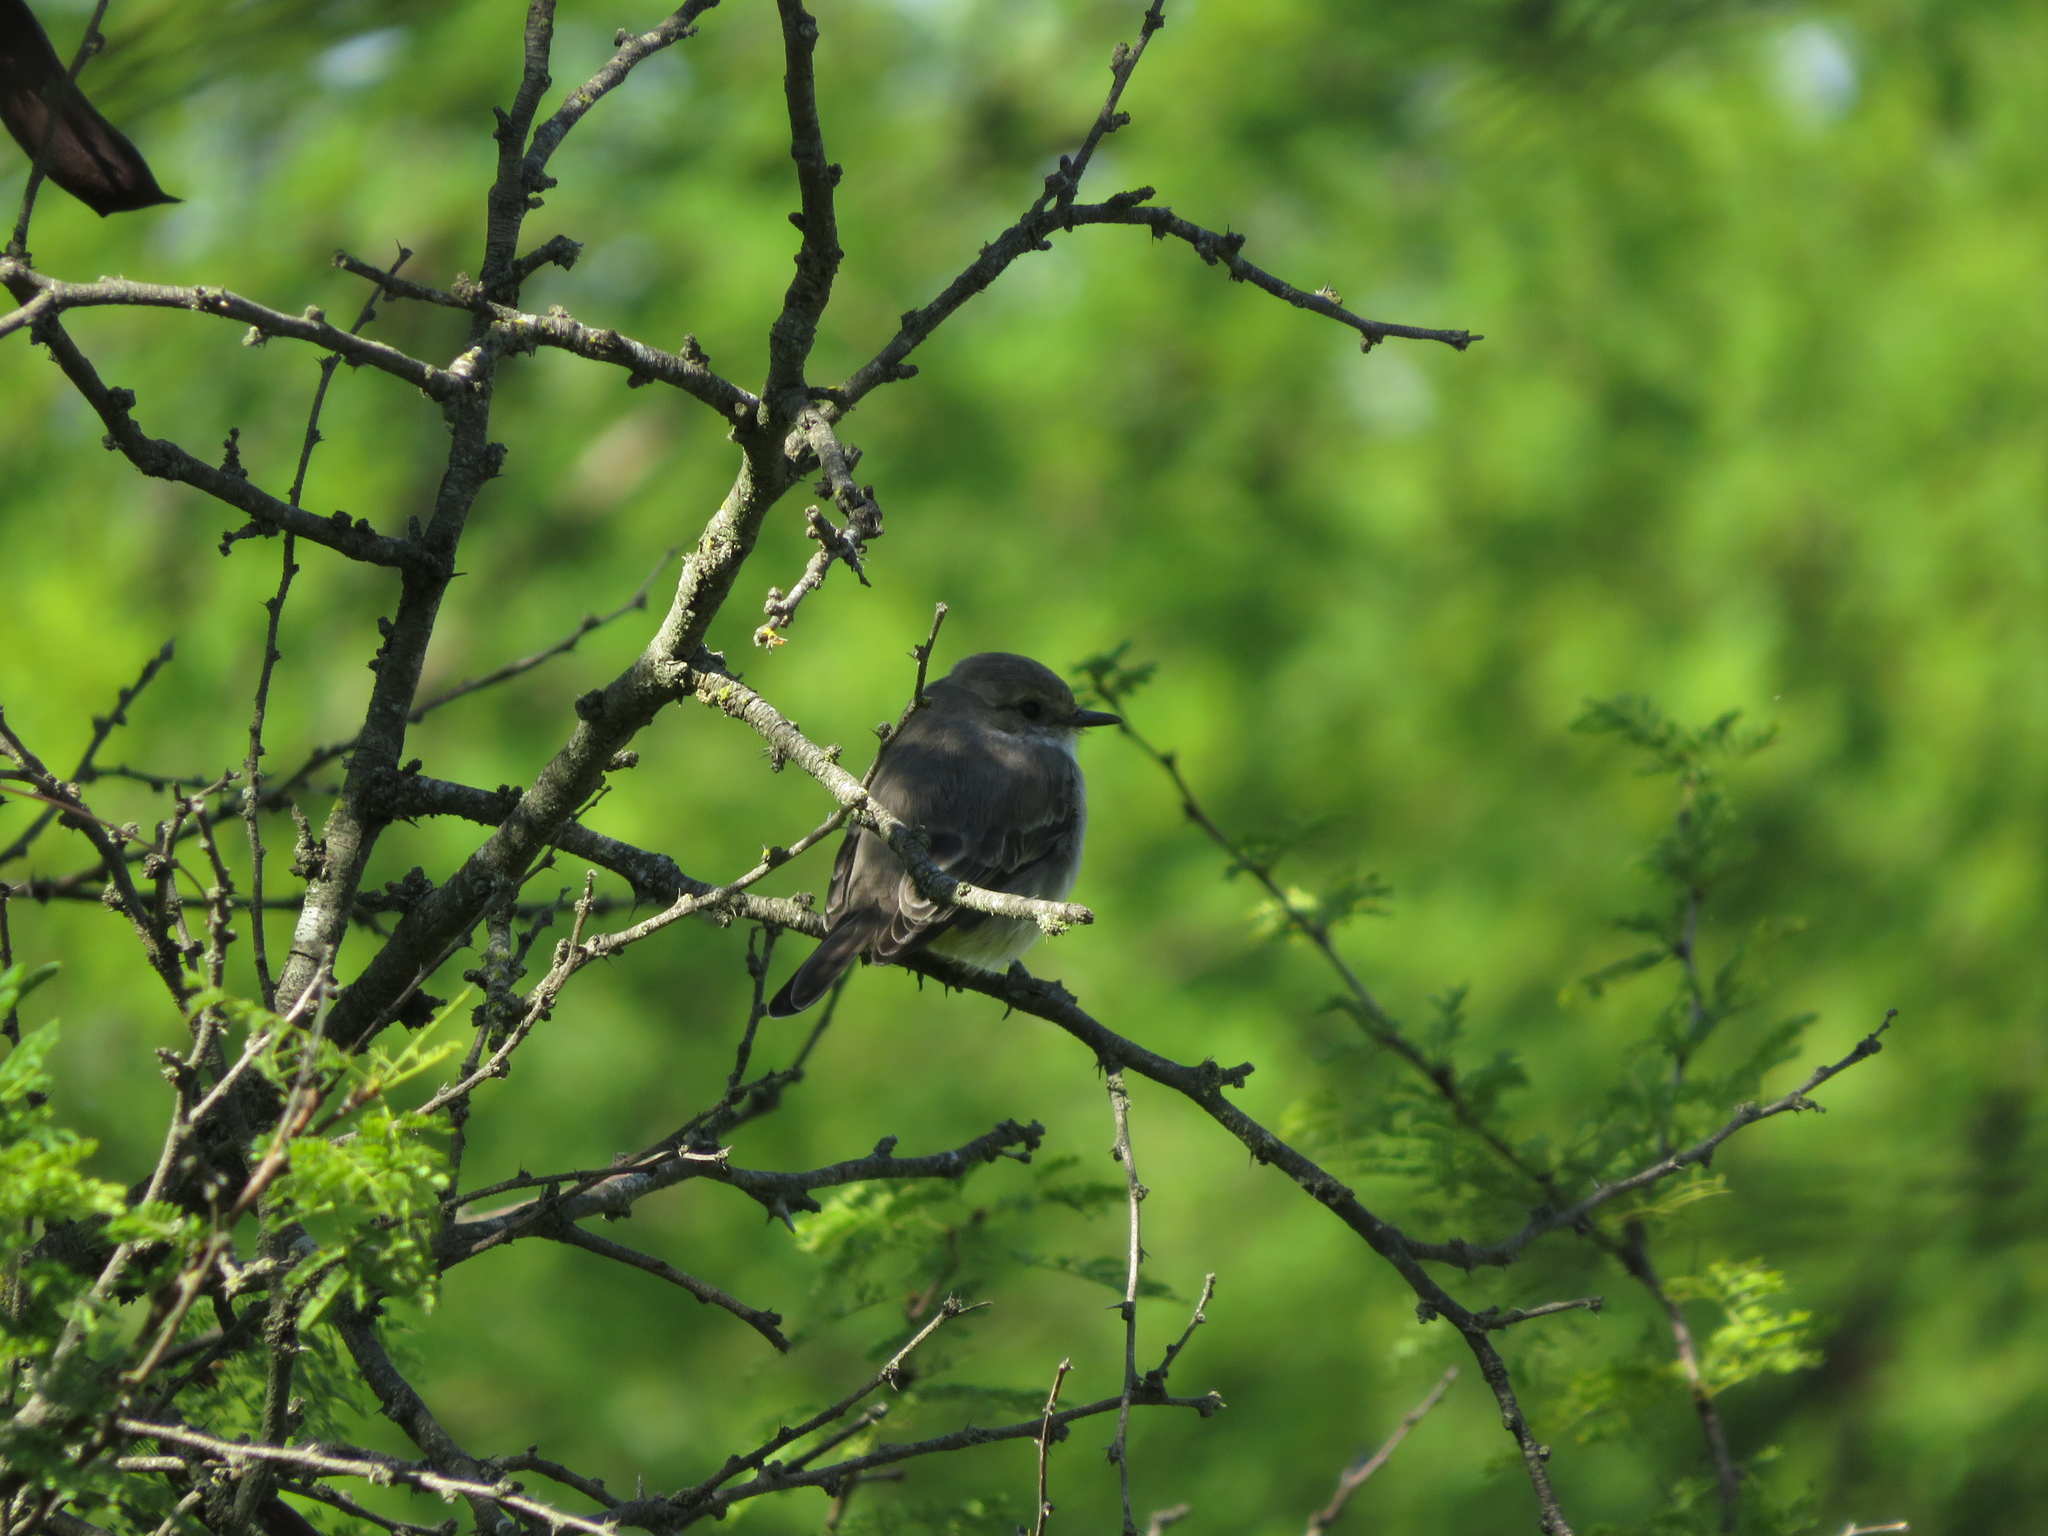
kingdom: Animalia
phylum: Chordata
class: Aves
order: Passeriformes
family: Tyrannidae
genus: Pyrocephalus
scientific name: Pyrocephalus rubinus
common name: Vermilion flycatcher
